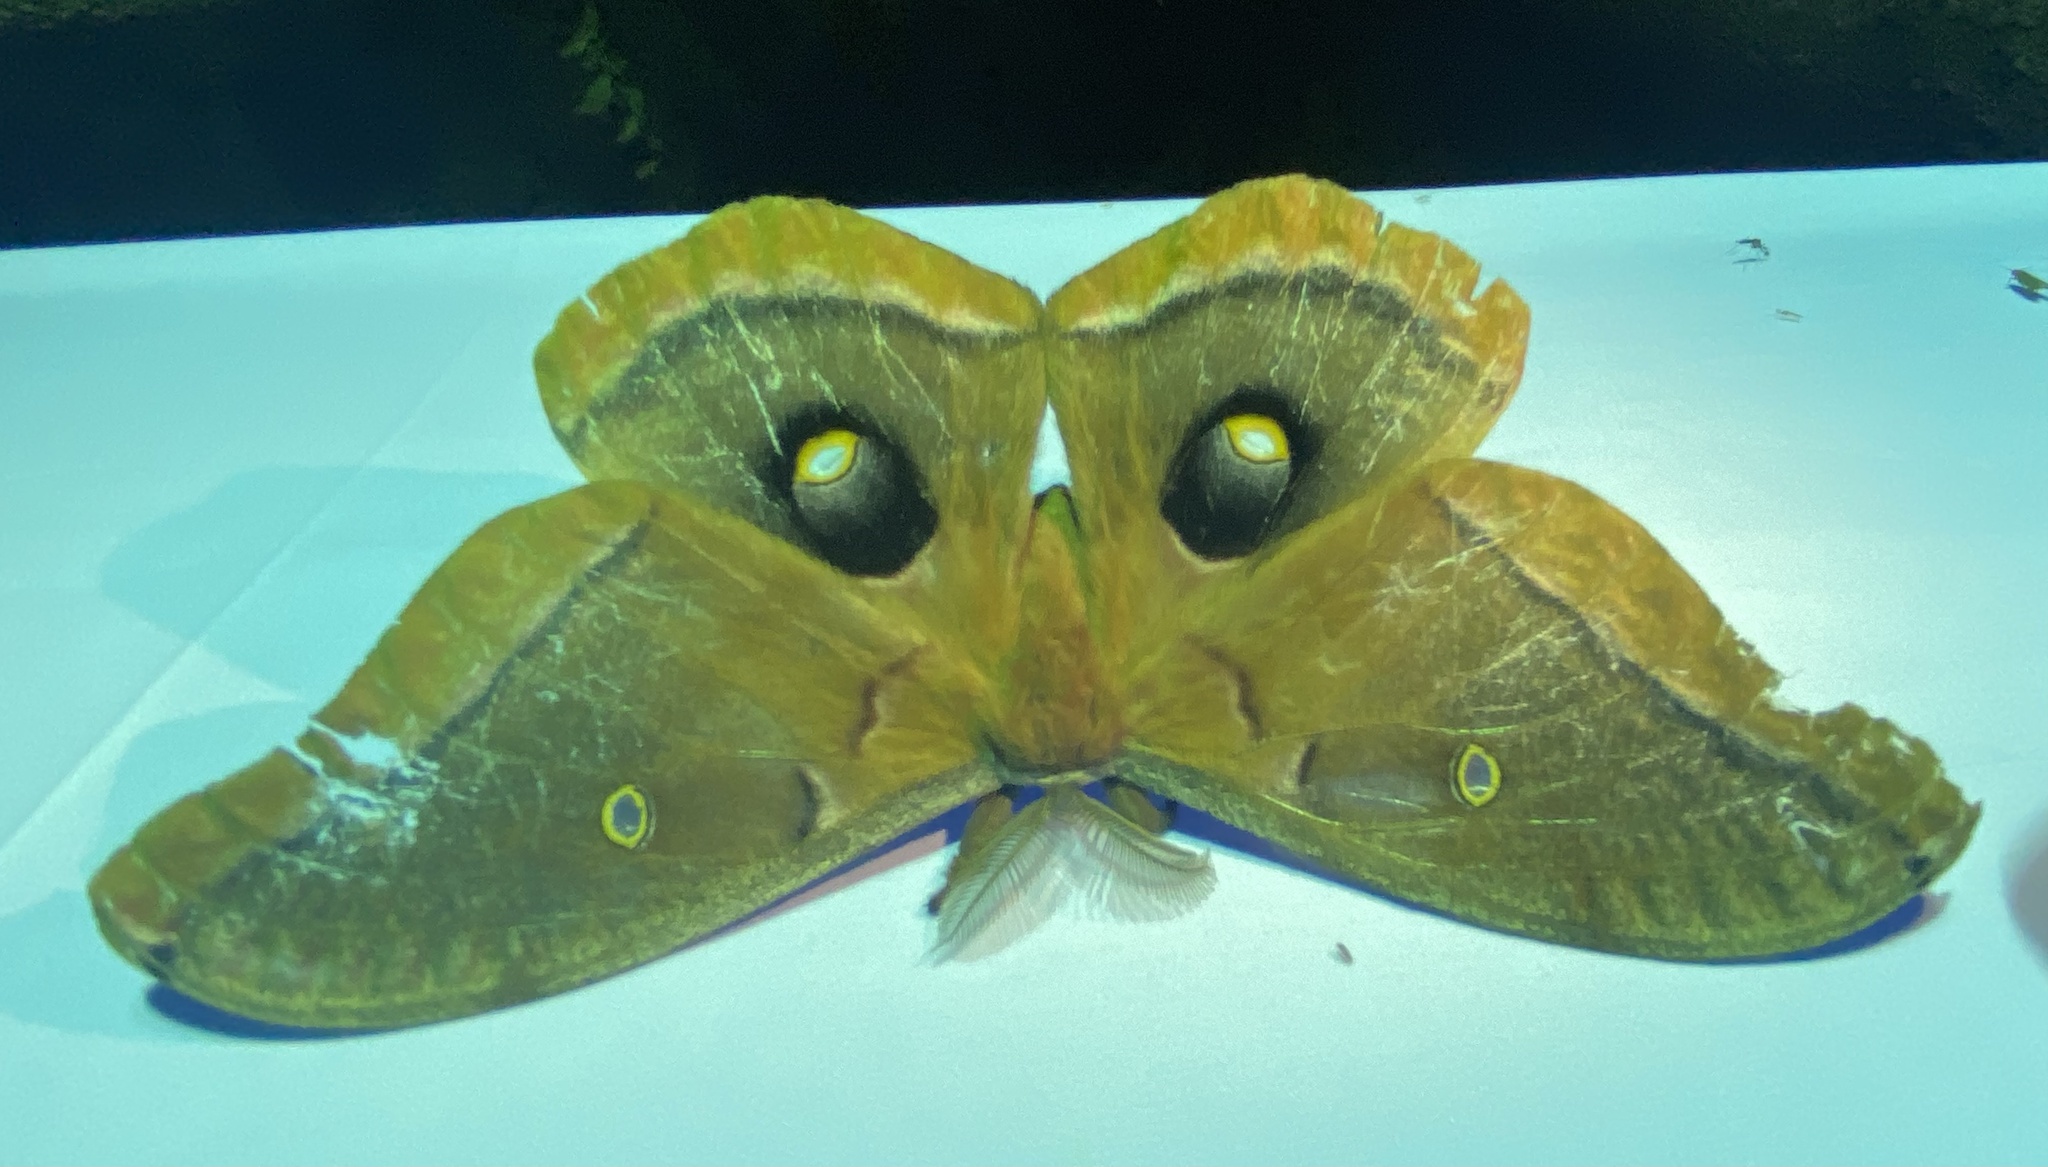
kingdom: Animalia
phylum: Arthropoda
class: Insecta
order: Lepidoptera
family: Saturniidae
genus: Antheraea
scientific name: Antheraea polyphemus
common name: Polyphemus moth
